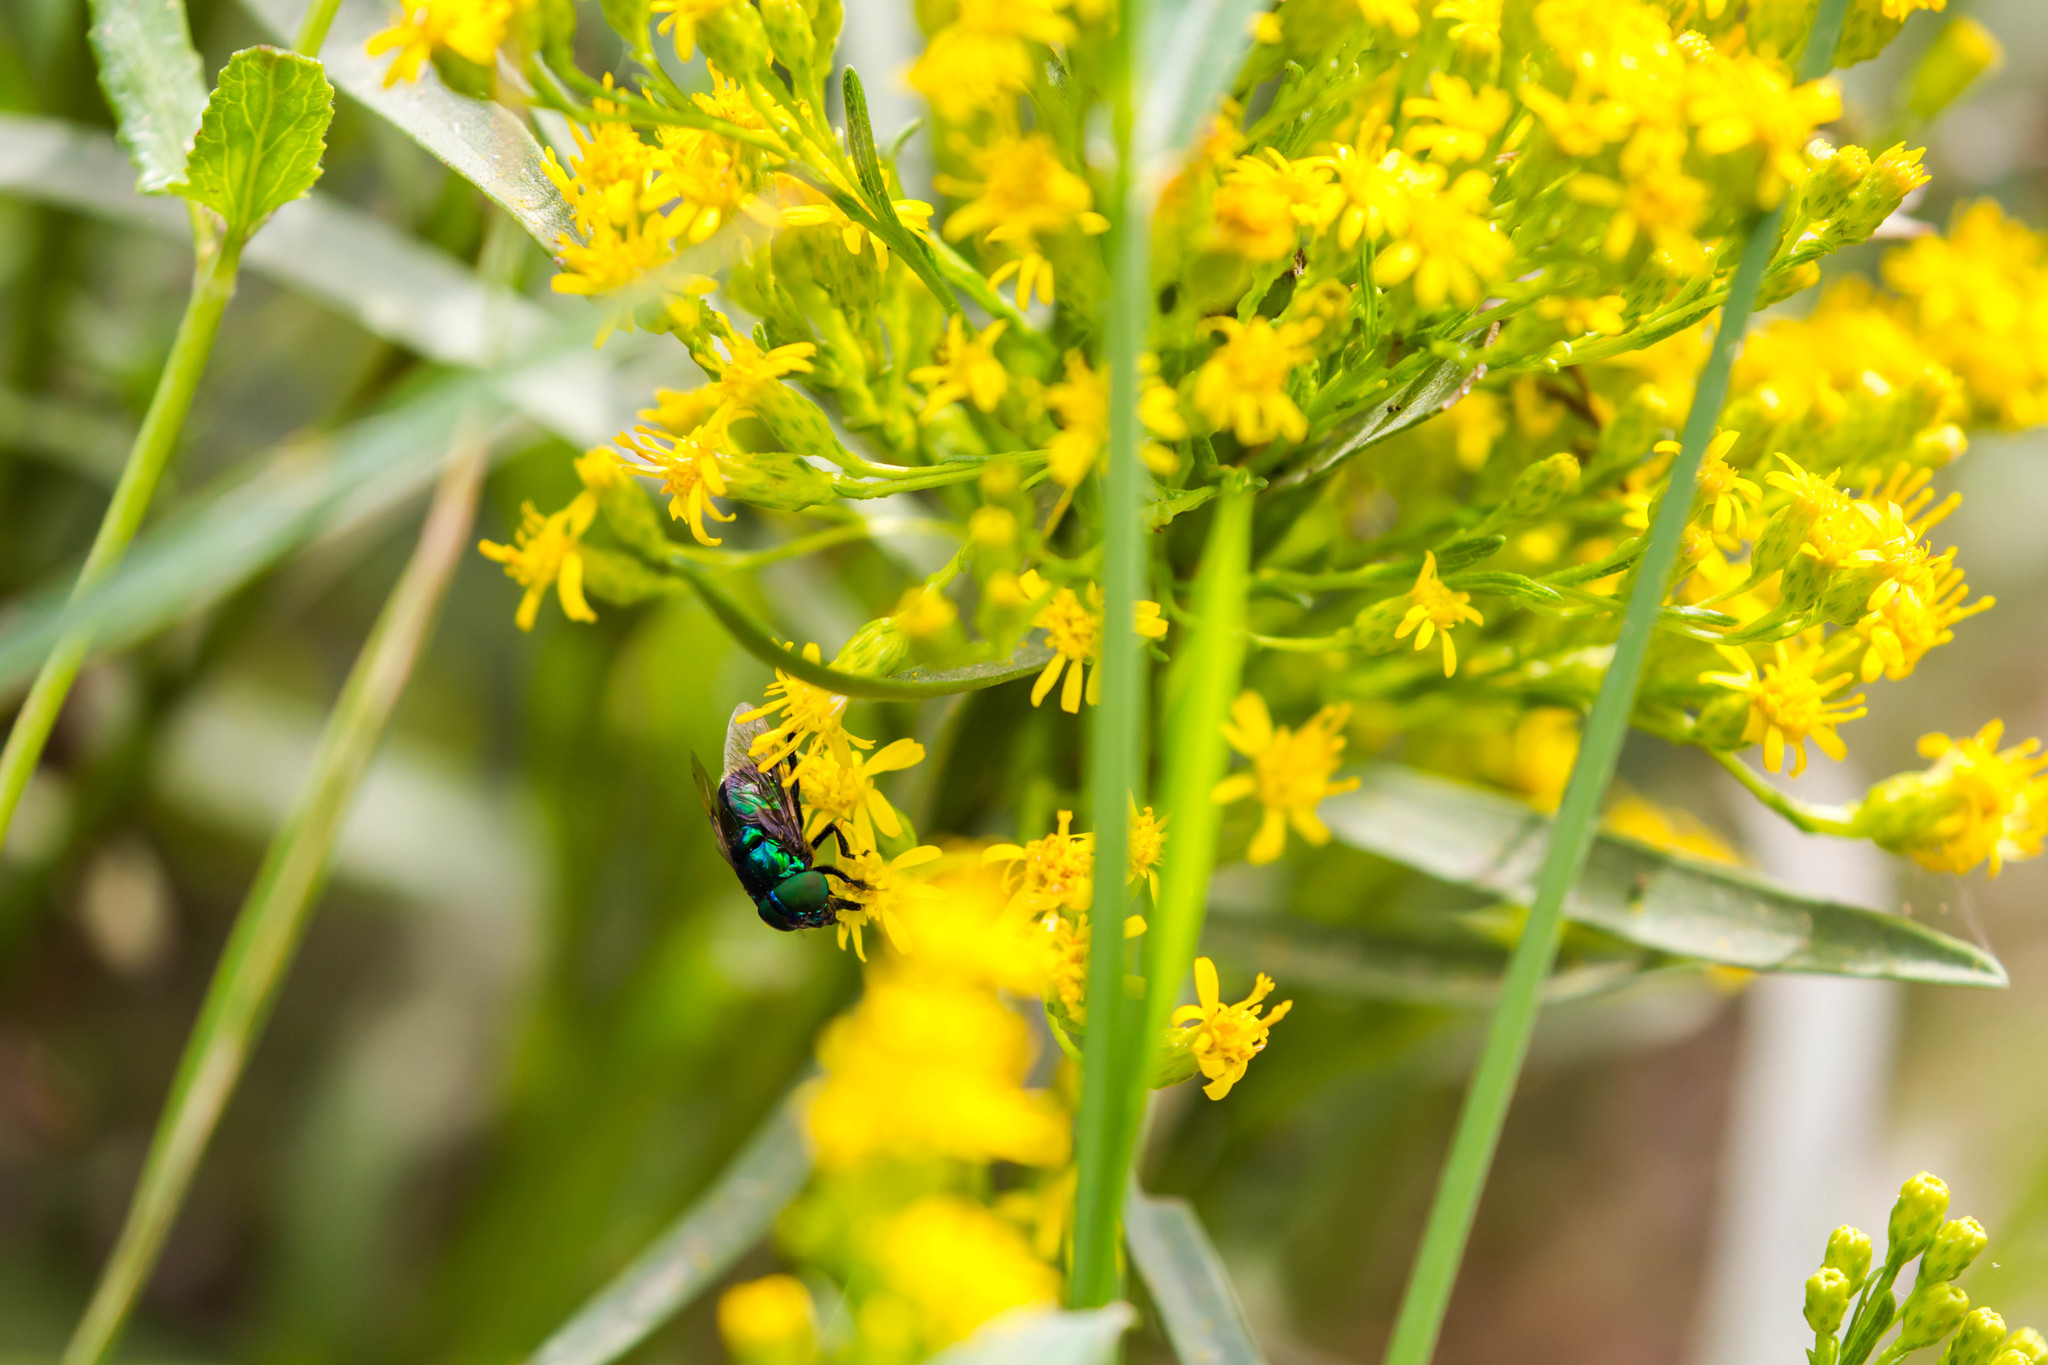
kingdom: Animalia
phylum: Arthropoda
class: Insecta
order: Diptera
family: Syrphidae
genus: Ornidia
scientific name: Ornidia obesa
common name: Syrphid fly
